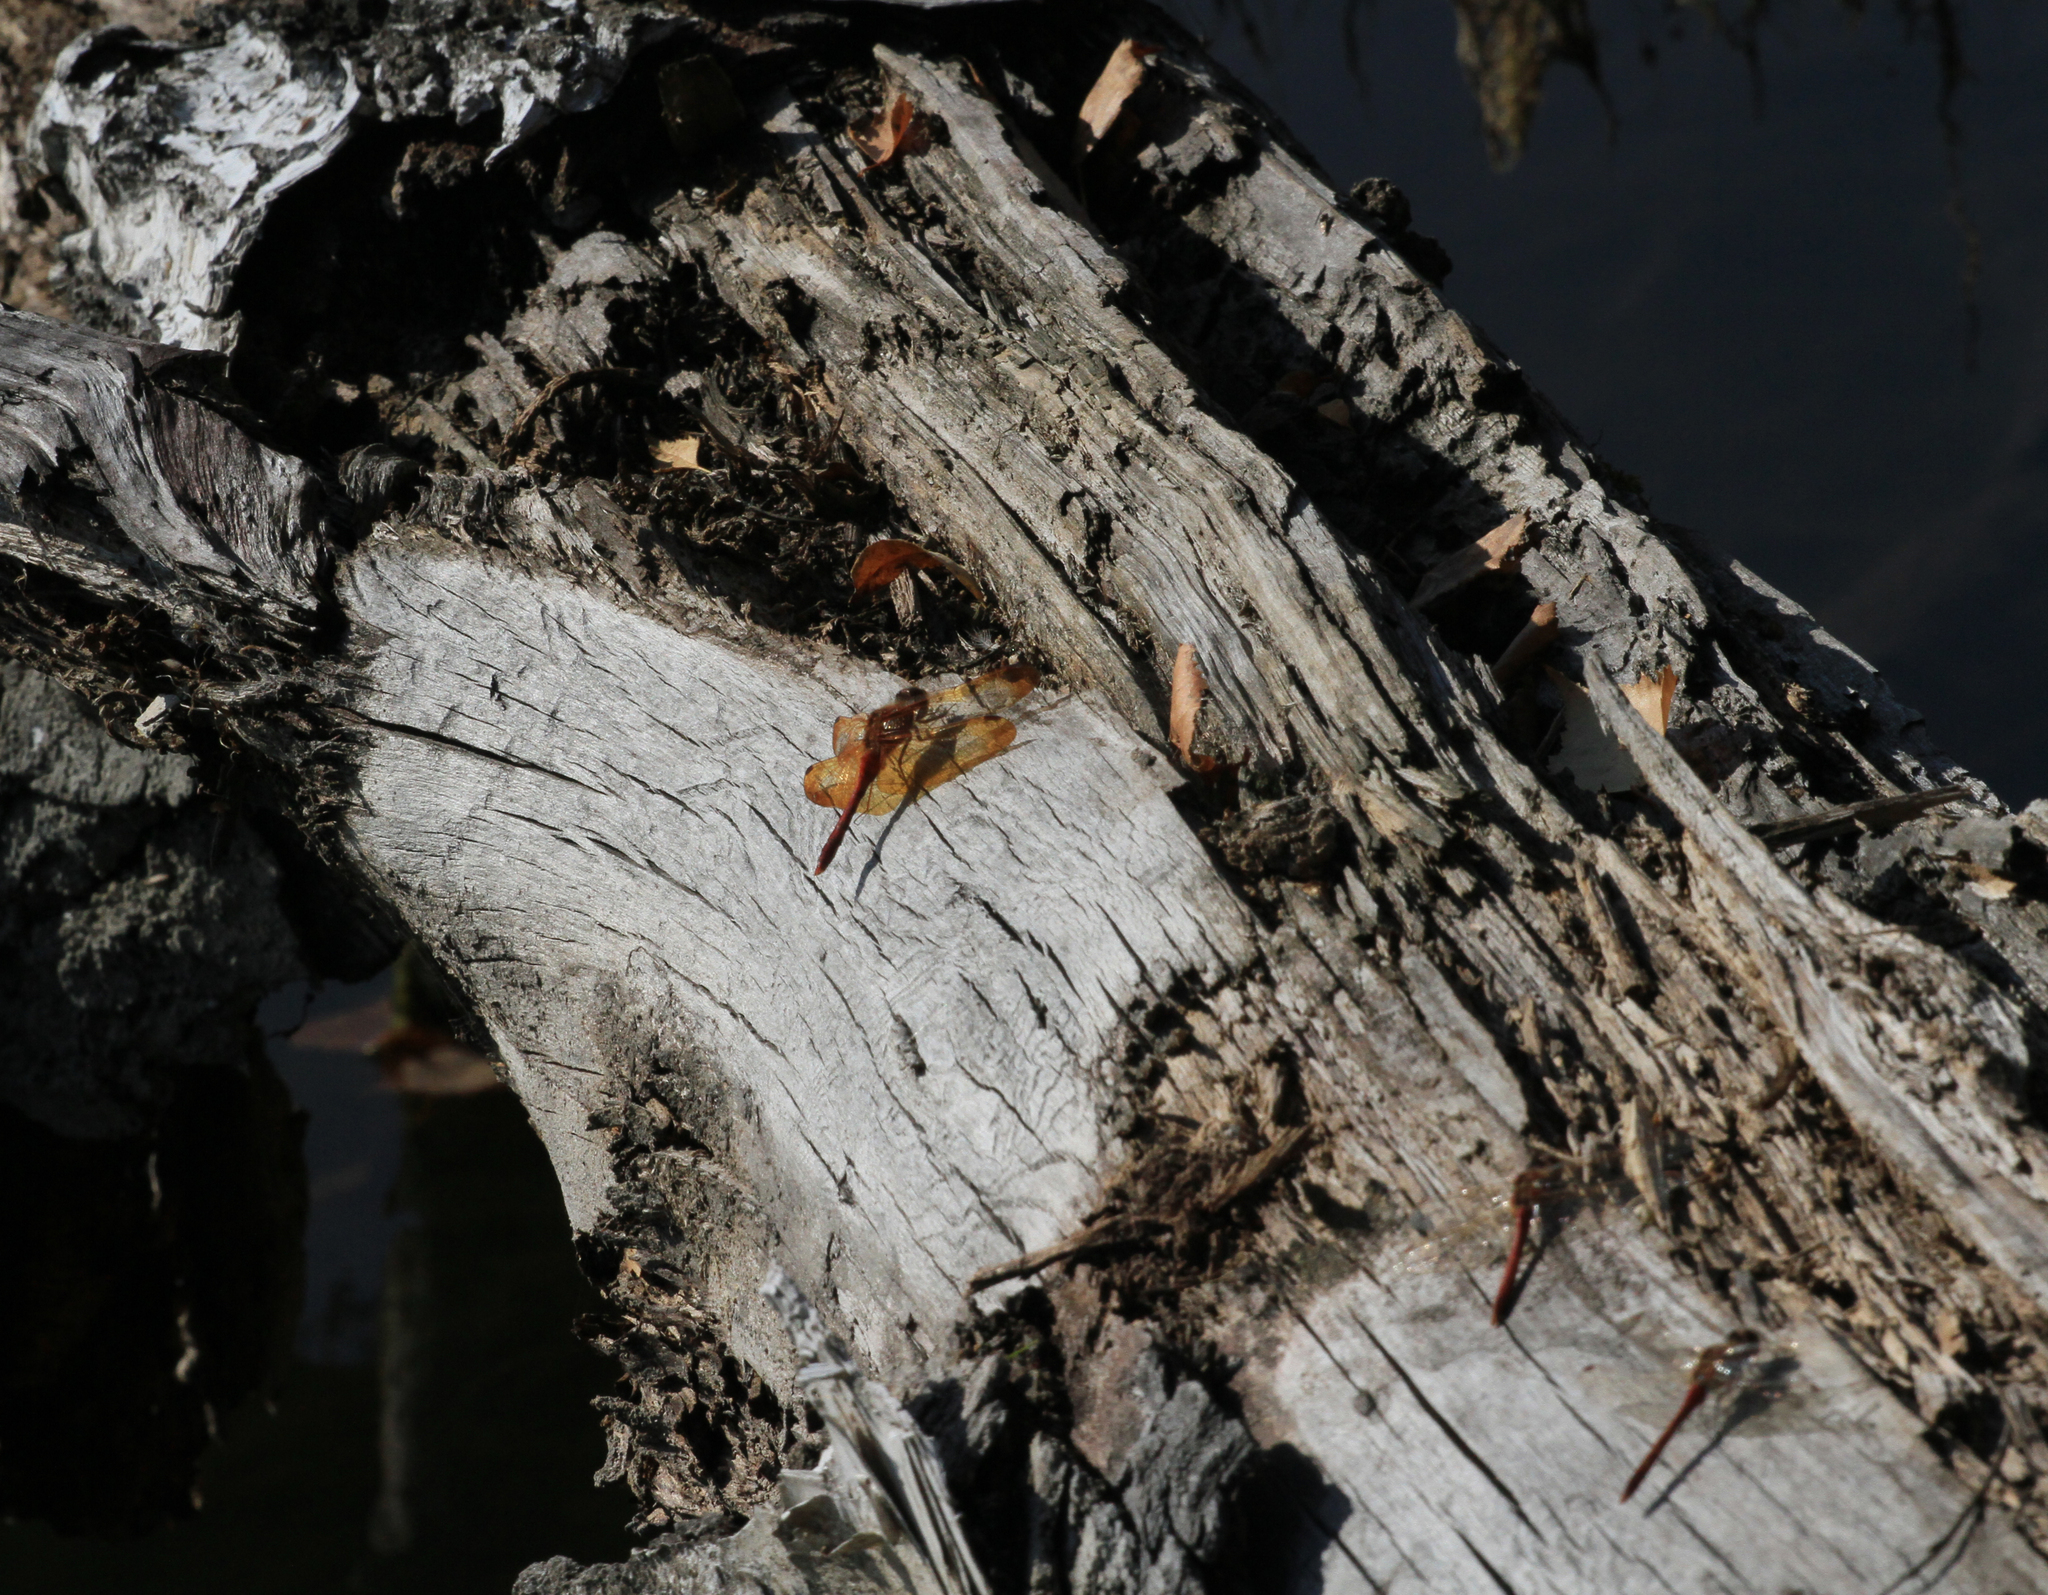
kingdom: Animalia
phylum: Arthropoda
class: Insecta
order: Odonata
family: Libellulidae
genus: Sympetrum
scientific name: Sympetrum croceolum
